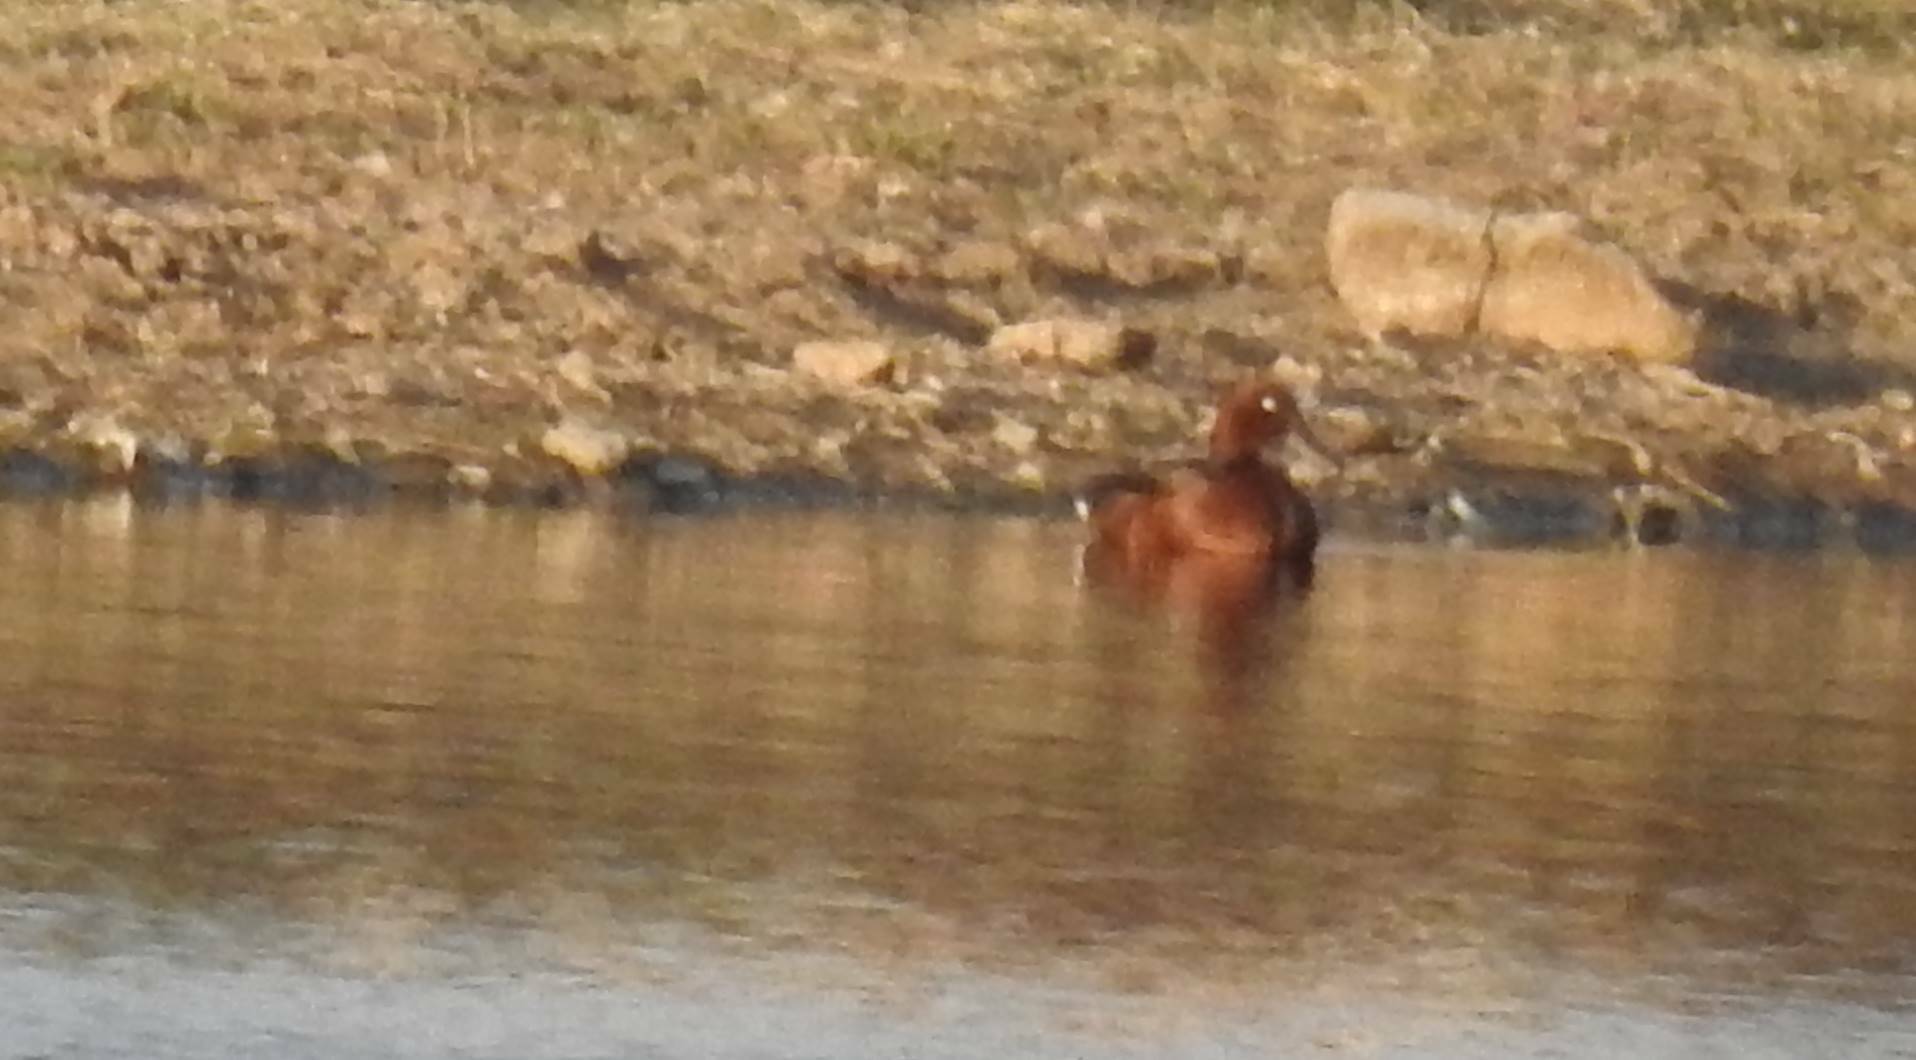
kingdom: Animalia
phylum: Chordata
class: Aves
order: Anseriformes
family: Anatidae
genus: Aythya
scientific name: Aythya nyroca
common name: Ferruginous duck
